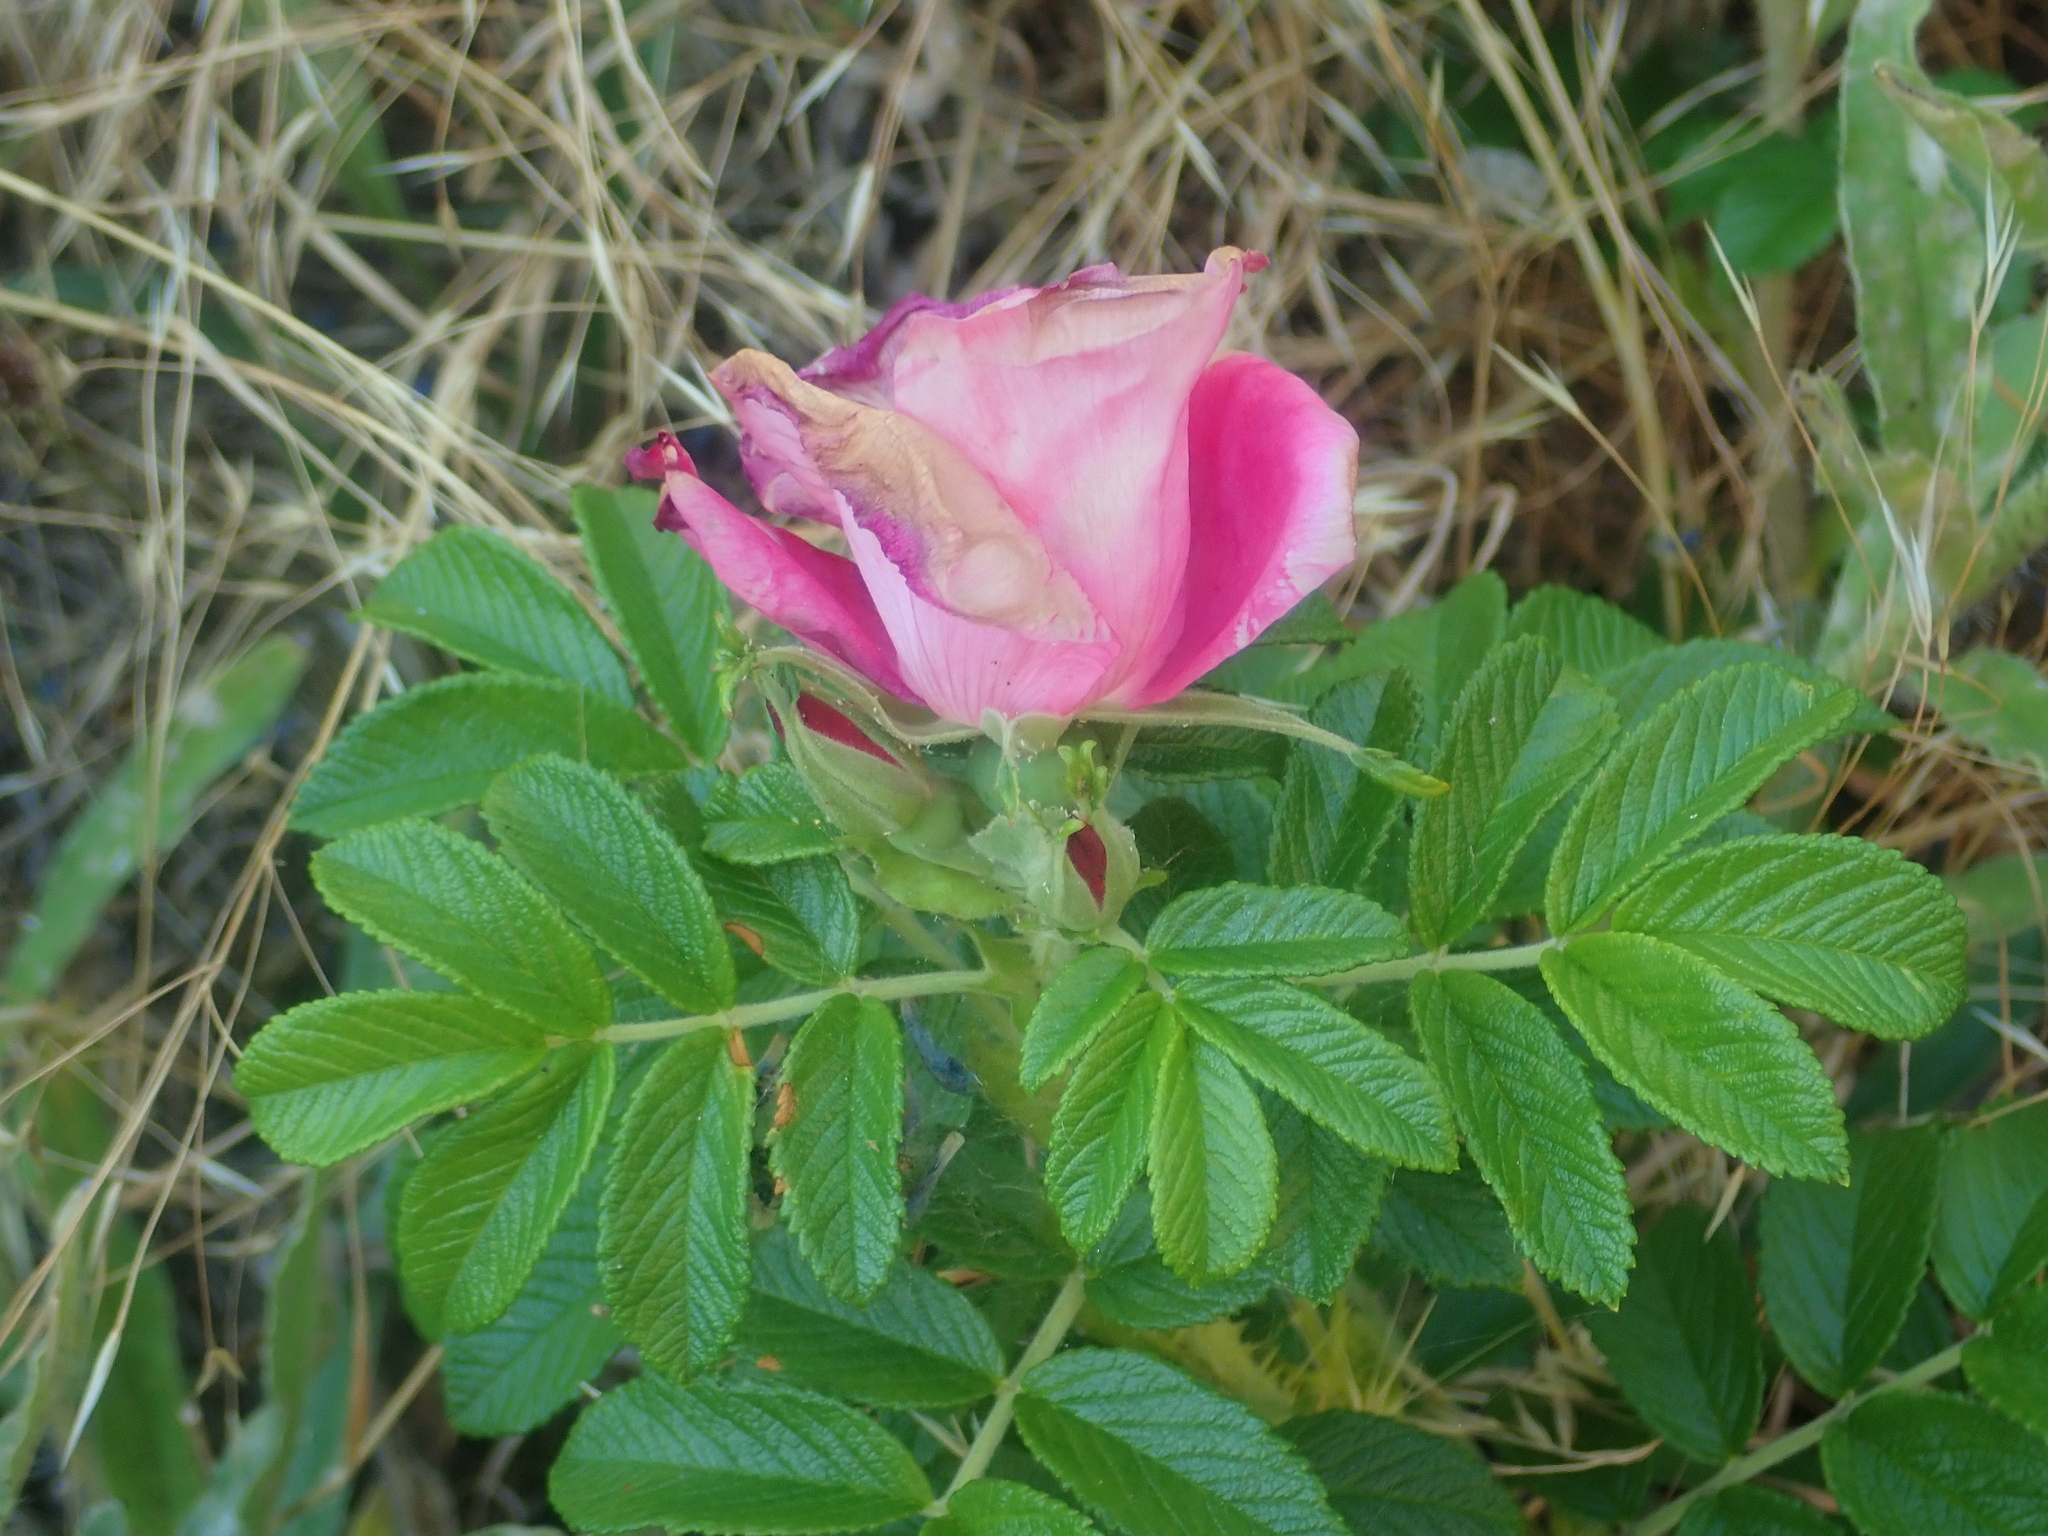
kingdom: Plantae
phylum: Tracheophyta
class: Magnoliopsida
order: Rosales
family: Rosaceae
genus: Rosa
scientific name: Rosa rugosa
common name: Japanese rose
